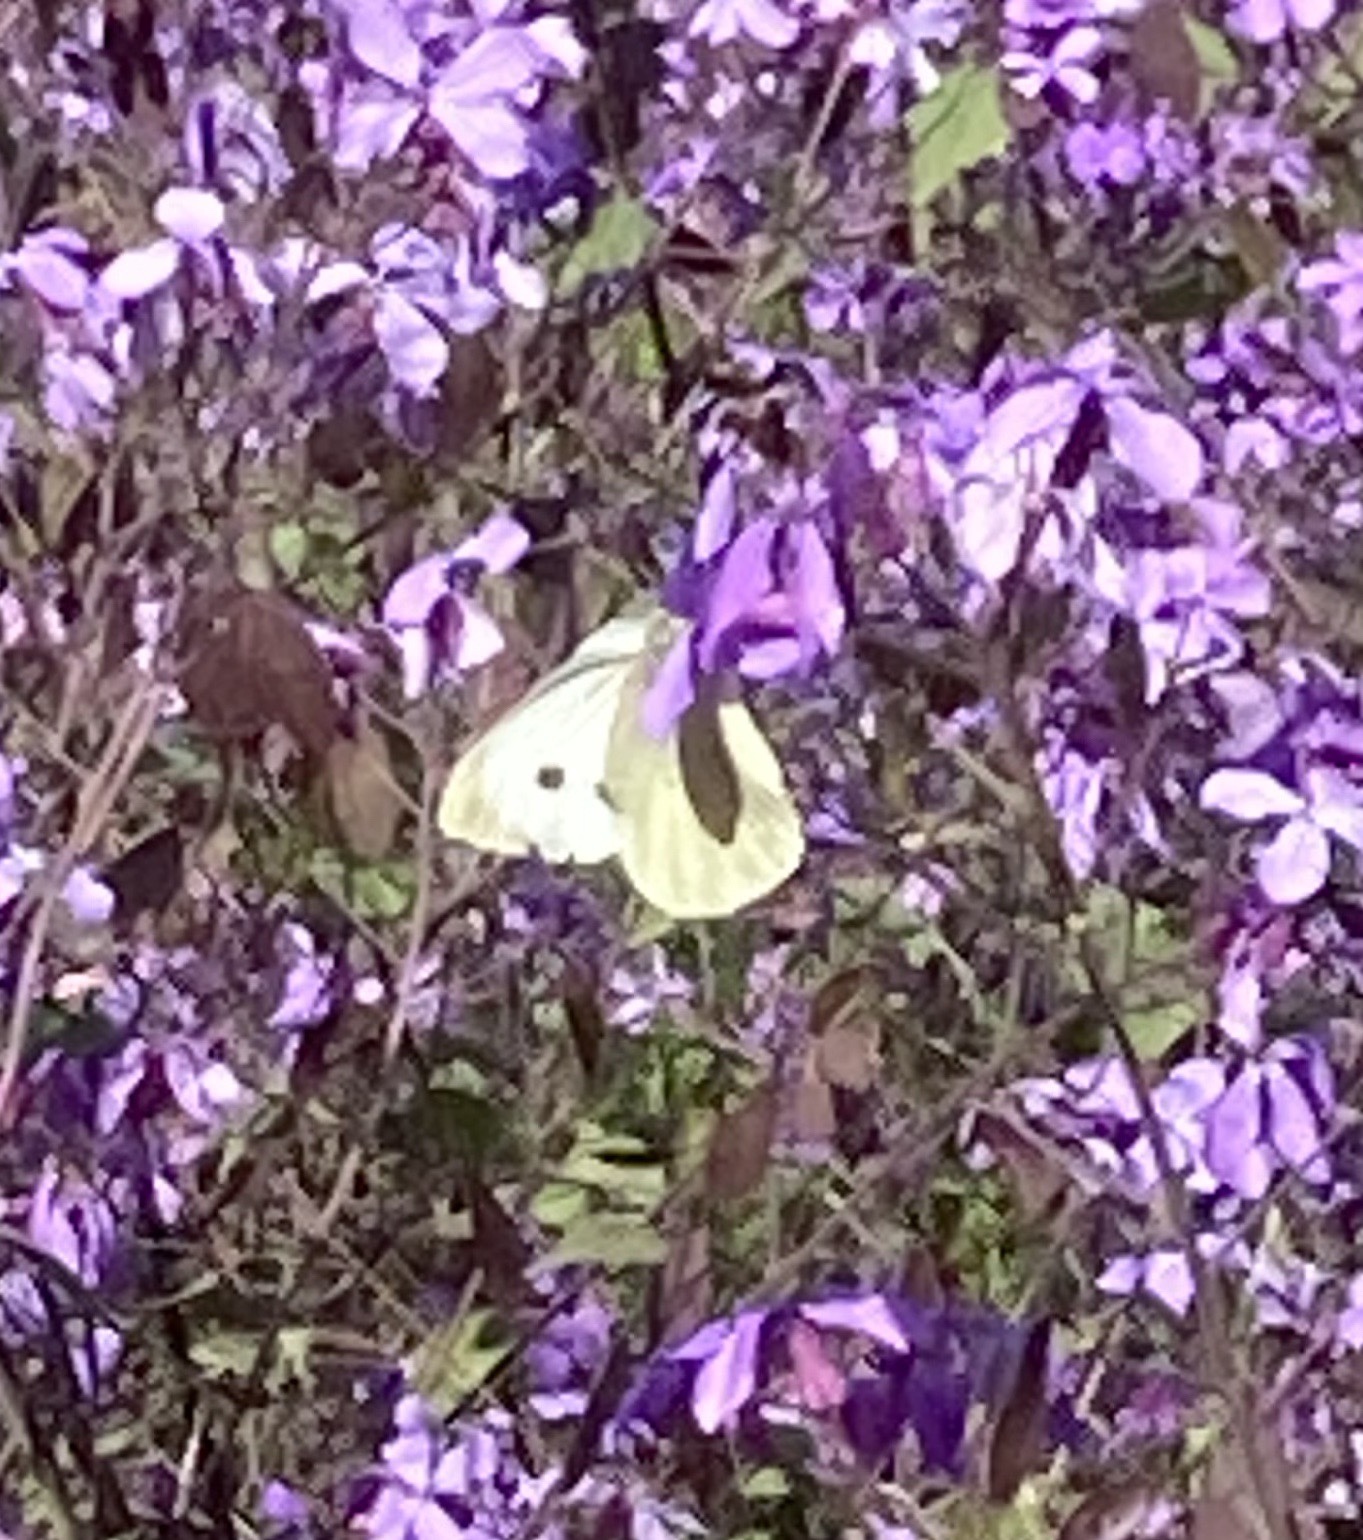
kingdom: Animalia
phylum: Arthropoda
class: Insecta
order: Lepidoptera
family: Pieridae
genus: Pieris
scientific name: Pieris brassicae
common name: Large white
